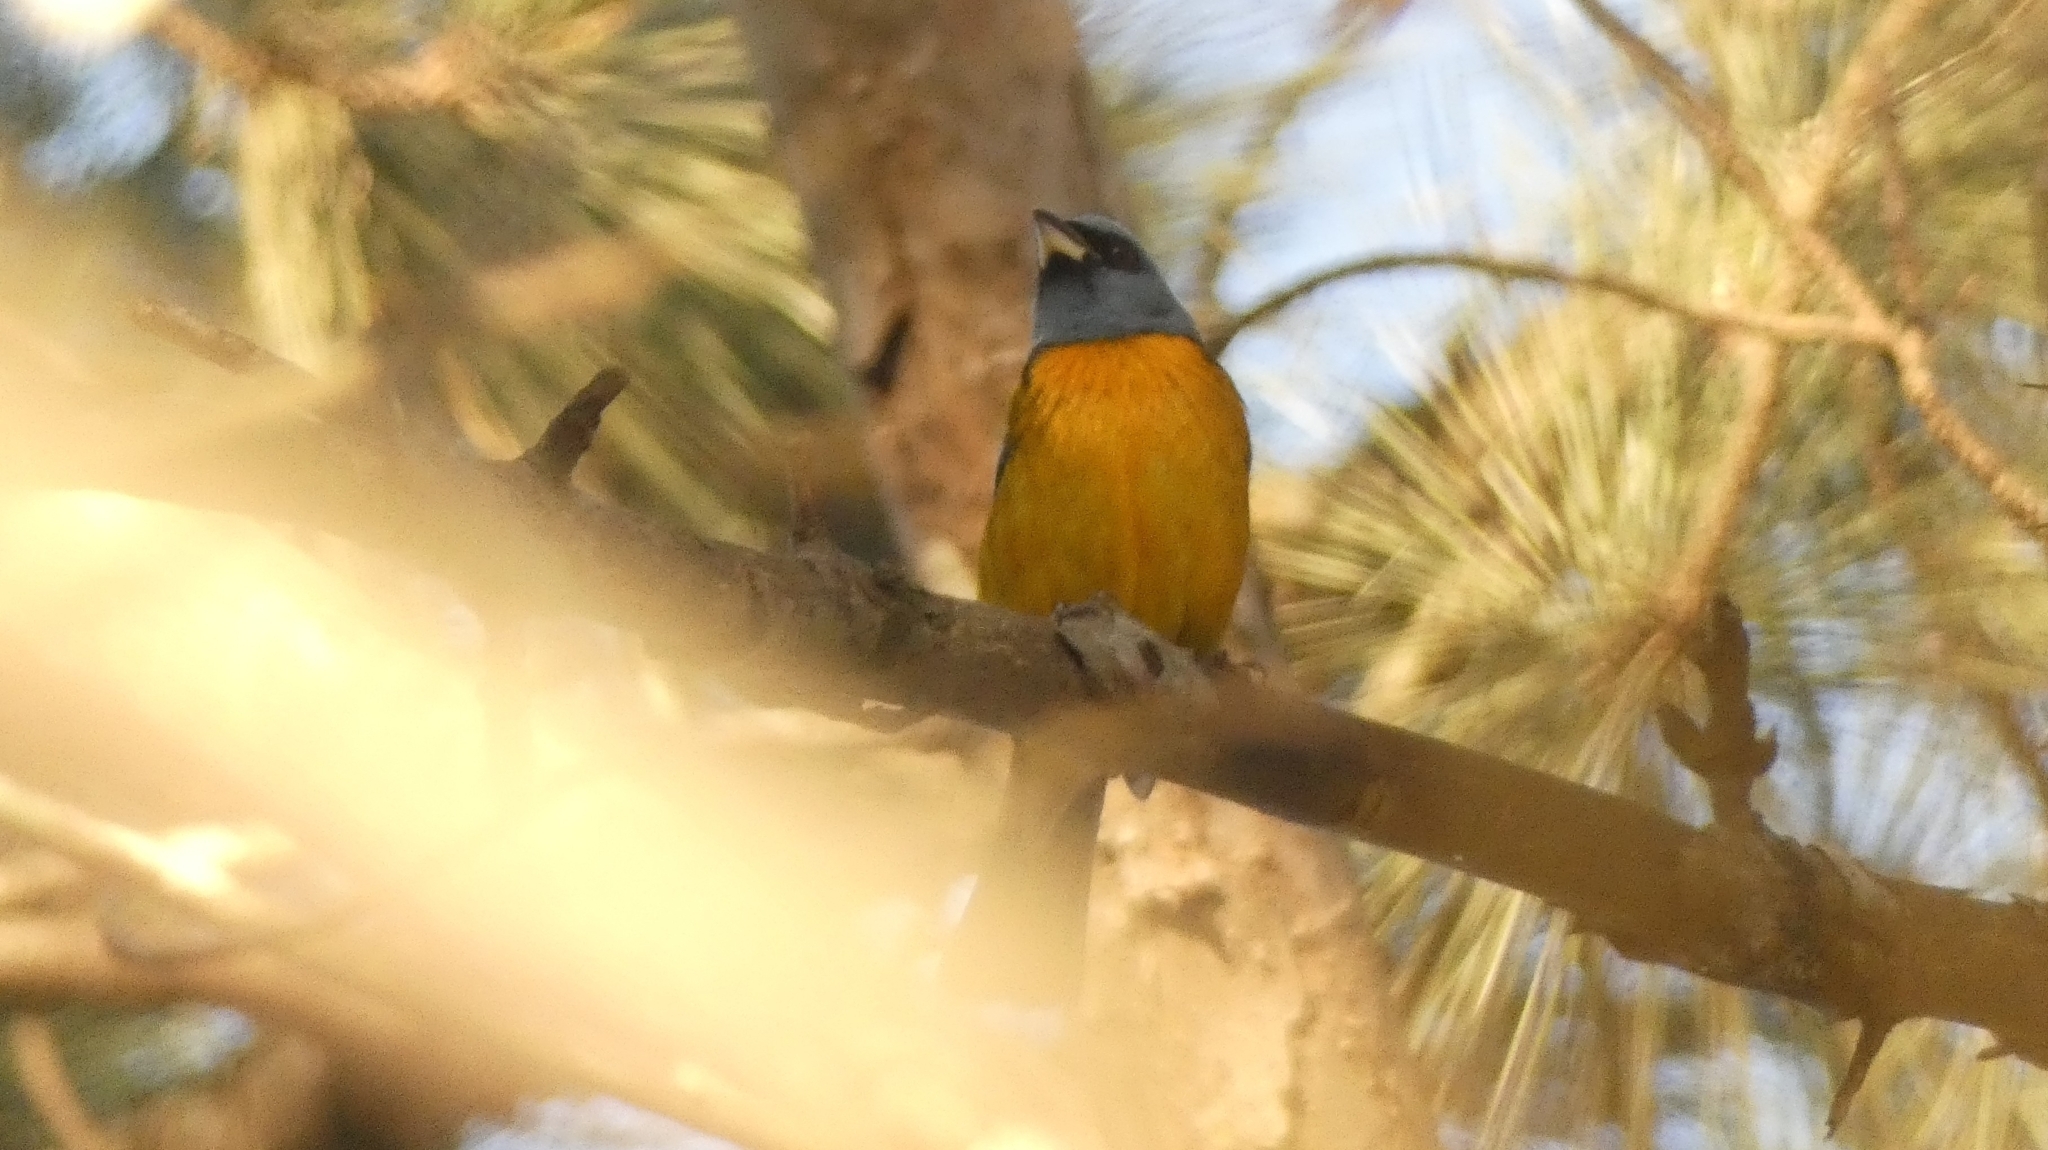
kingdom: Animalia
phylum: Chordata
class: Aves
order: Passeriformes
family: Thraupidae
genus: Rauenia
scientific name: Rauenia bonariensis
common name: Blue-and-yellow tanager
